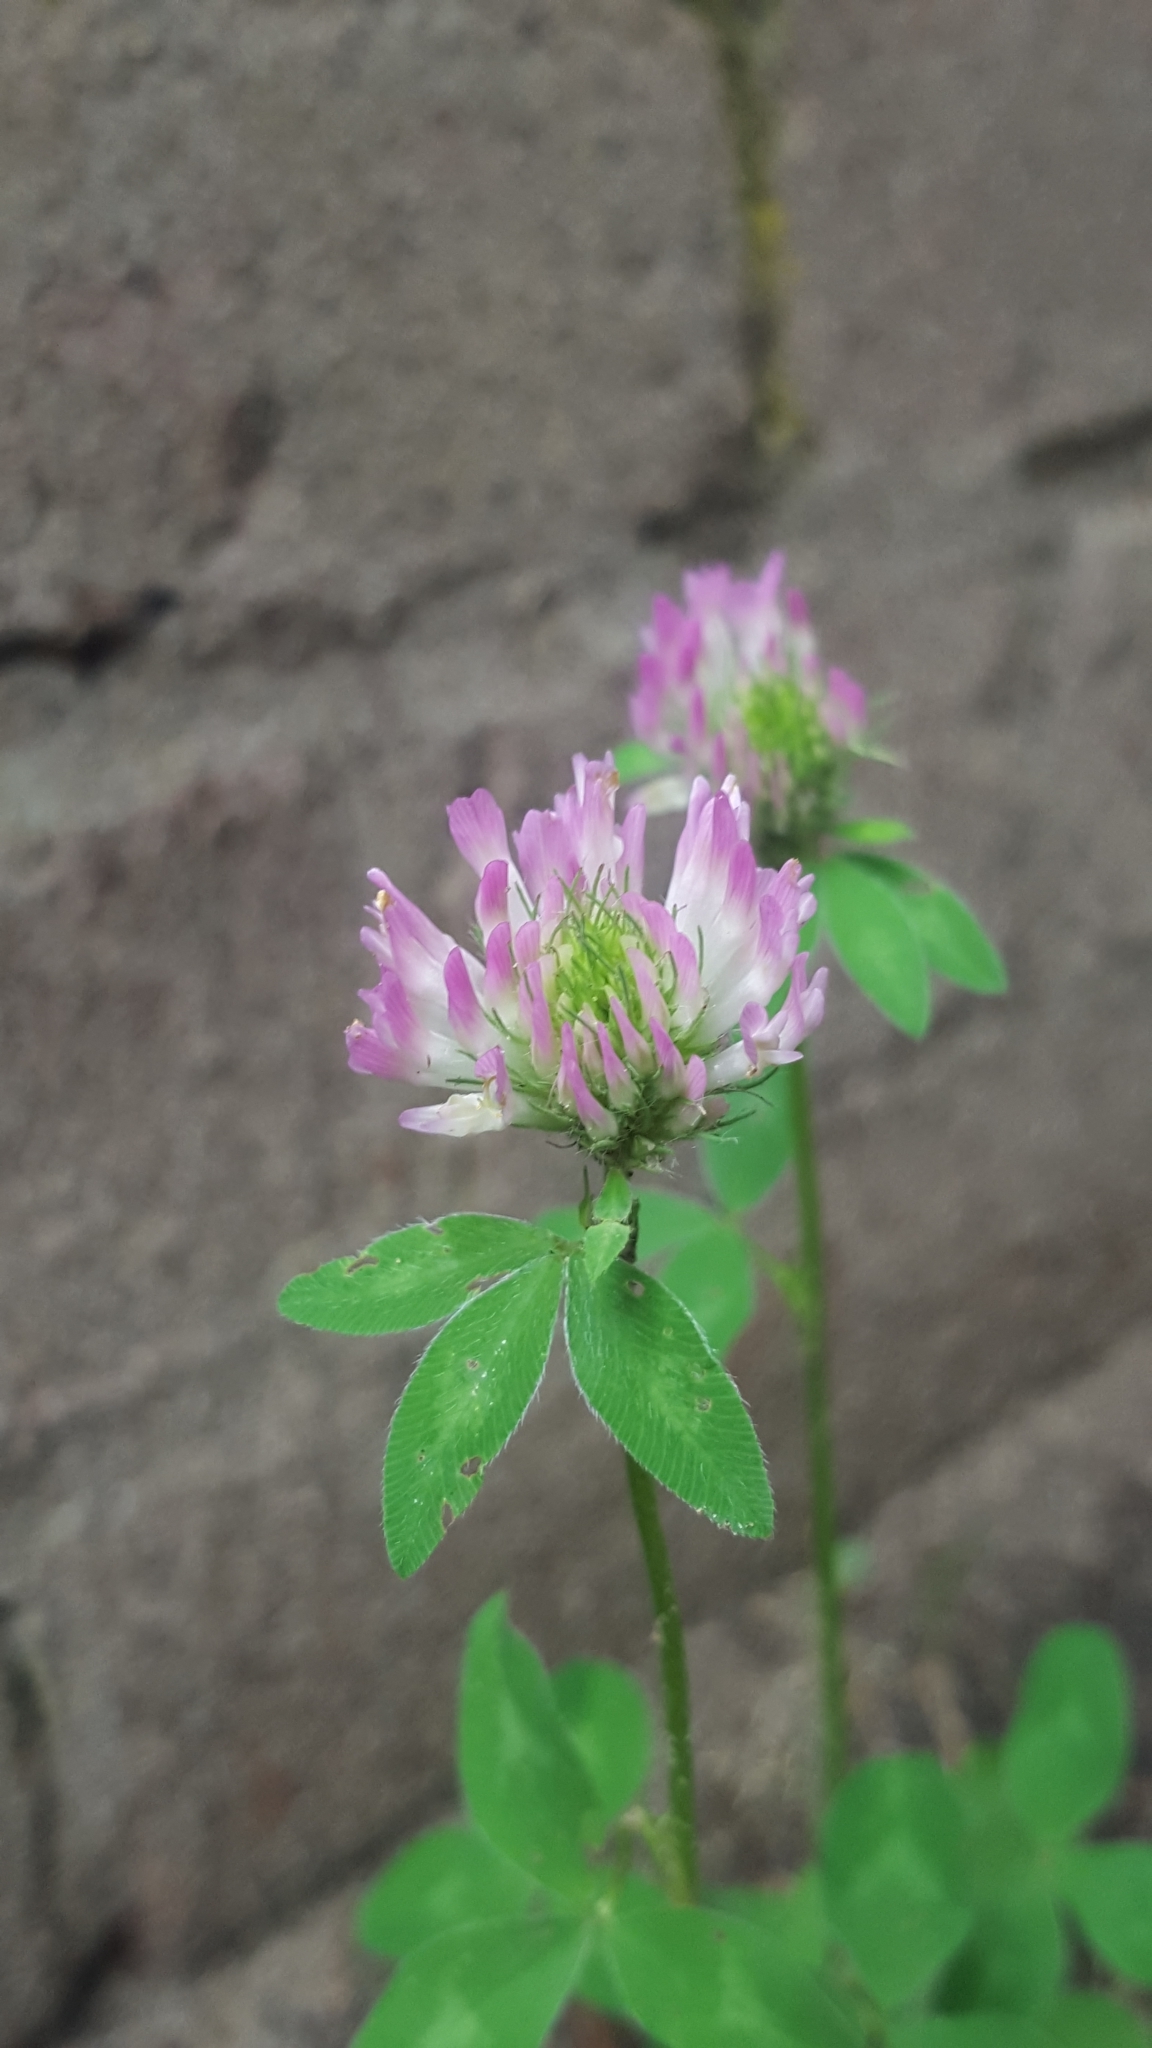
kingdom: Plantae
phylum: Tracheophyta
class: Magnoliopsida
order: Fabales
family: Fabaceae
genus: Trifolium
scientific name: Trifolium pratense
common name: Red clover
